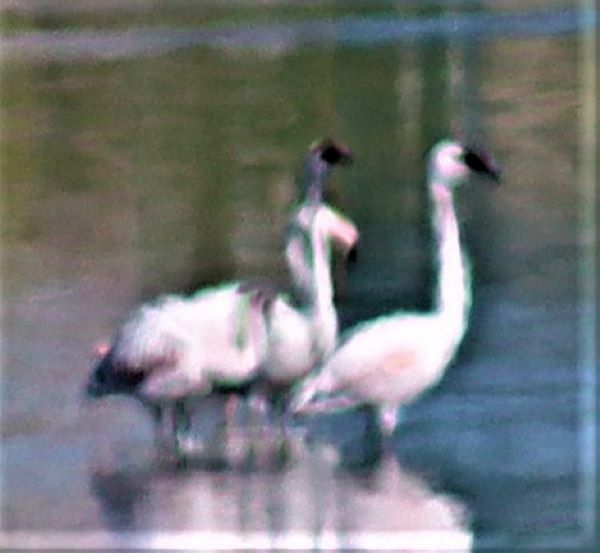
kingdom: Animalia
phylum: Chordata
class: Aves
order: Phoenicopteriformes
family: Phoenicopteridae
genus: Phoeniconaias
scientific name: Phoeniconaias minor
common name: Lesser flamingo
